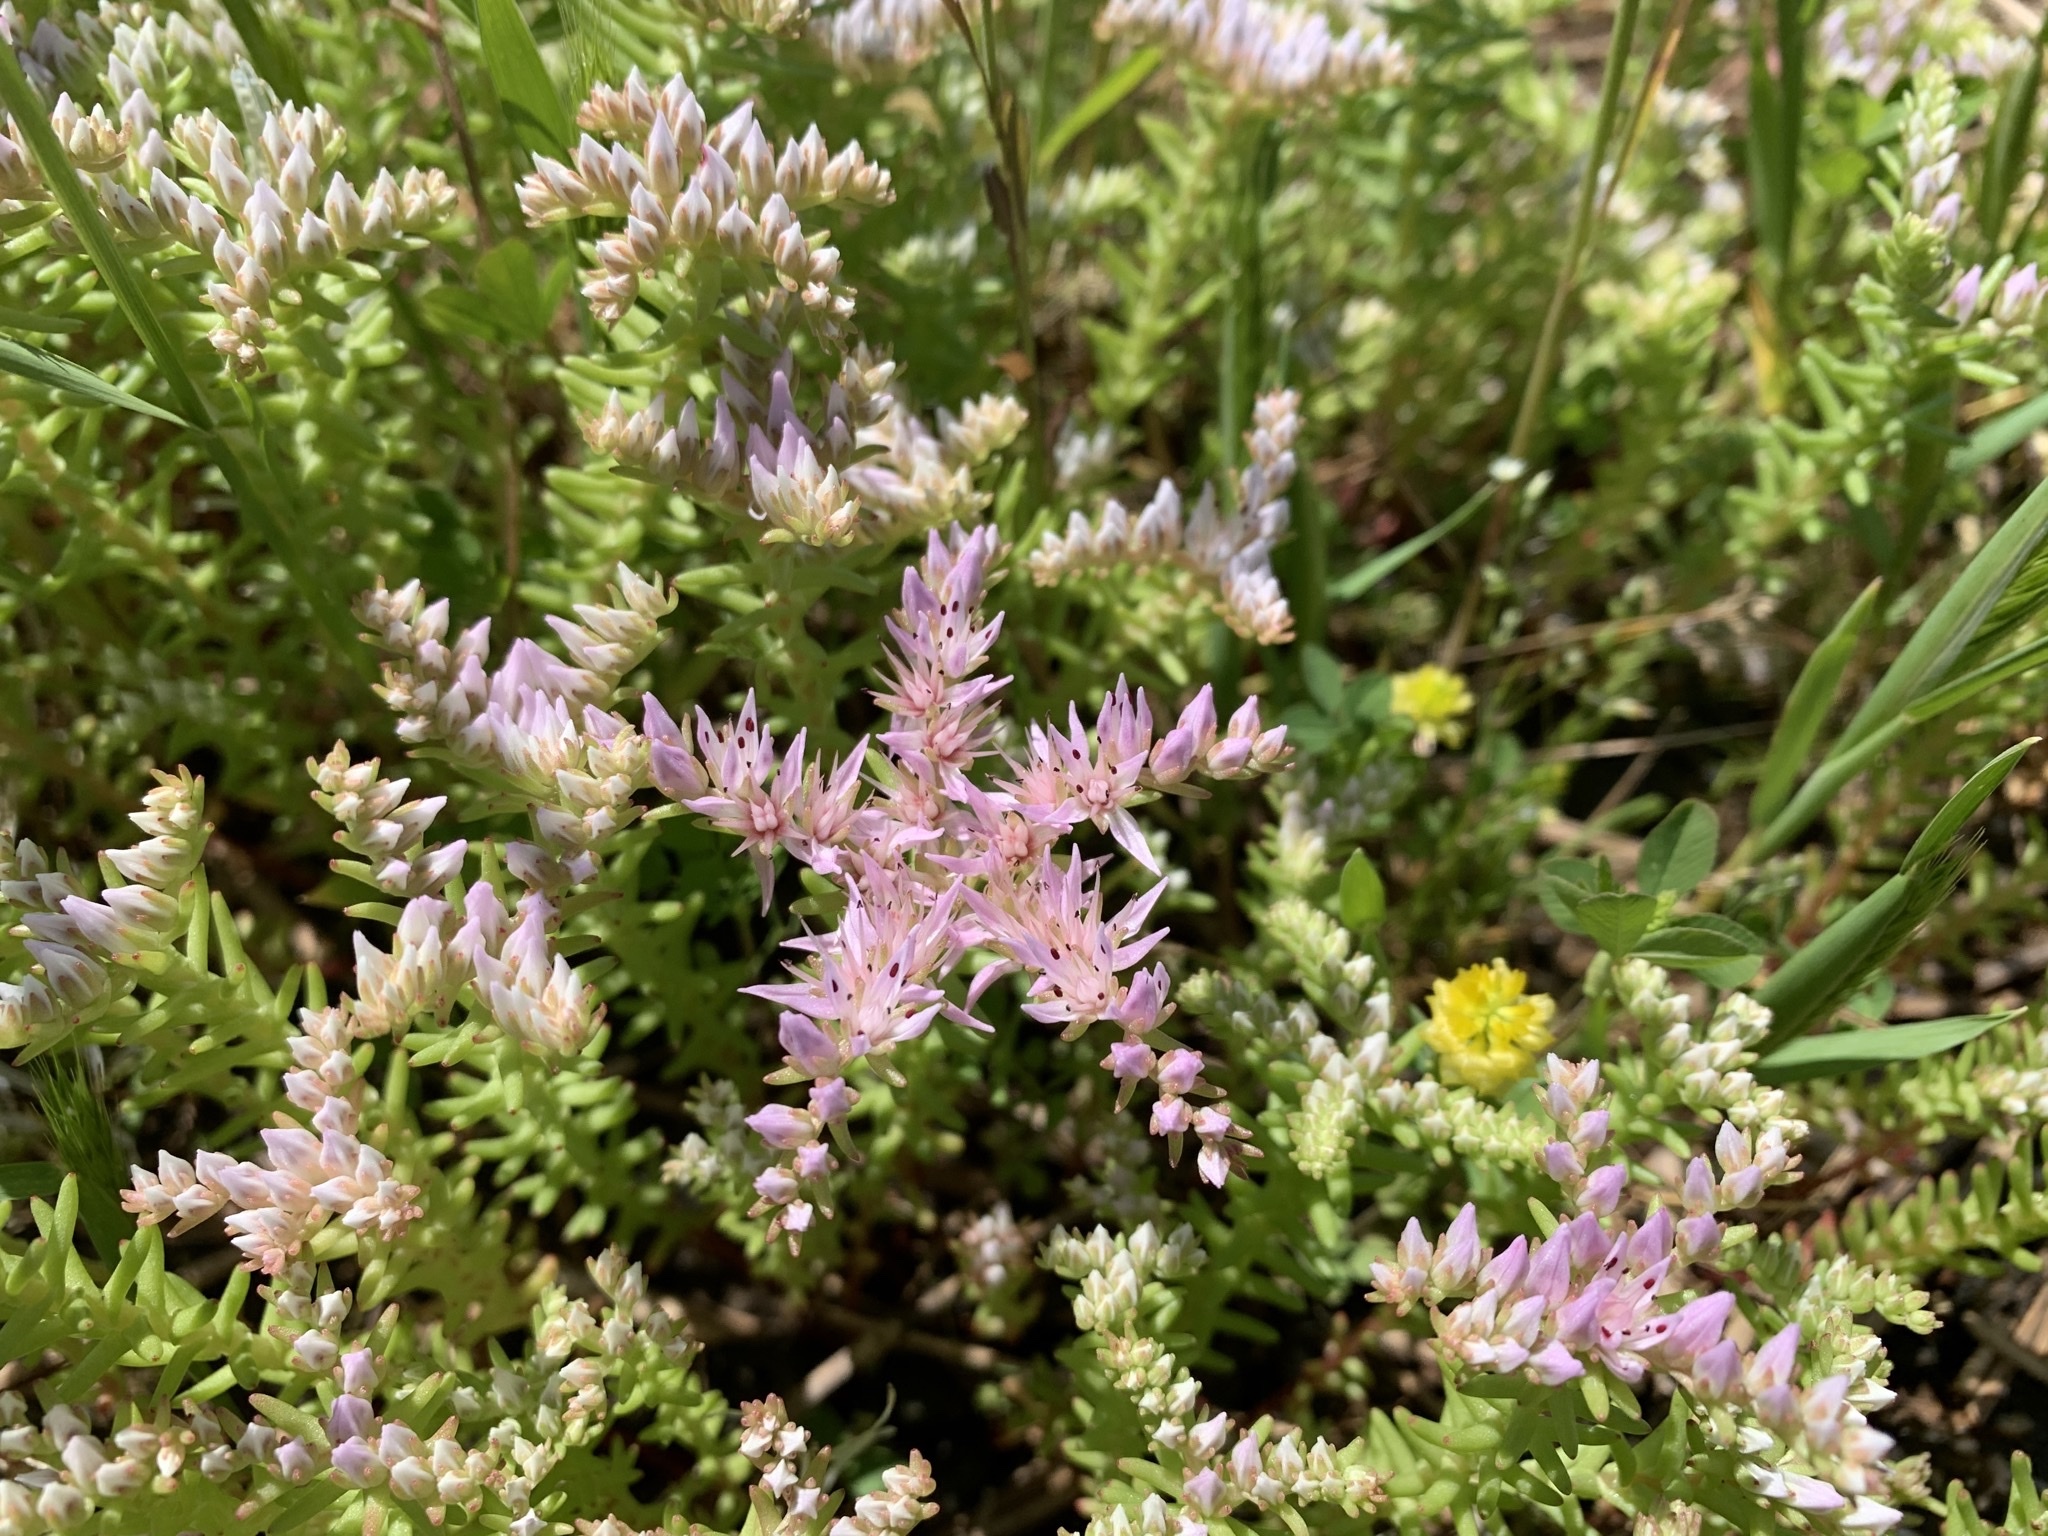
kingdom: Plantae
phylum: Tracheophyta
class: Magnoliopsida
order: Saxifragales
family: Crassulaceae
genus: Sedum
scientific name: Sedum pulchellum
